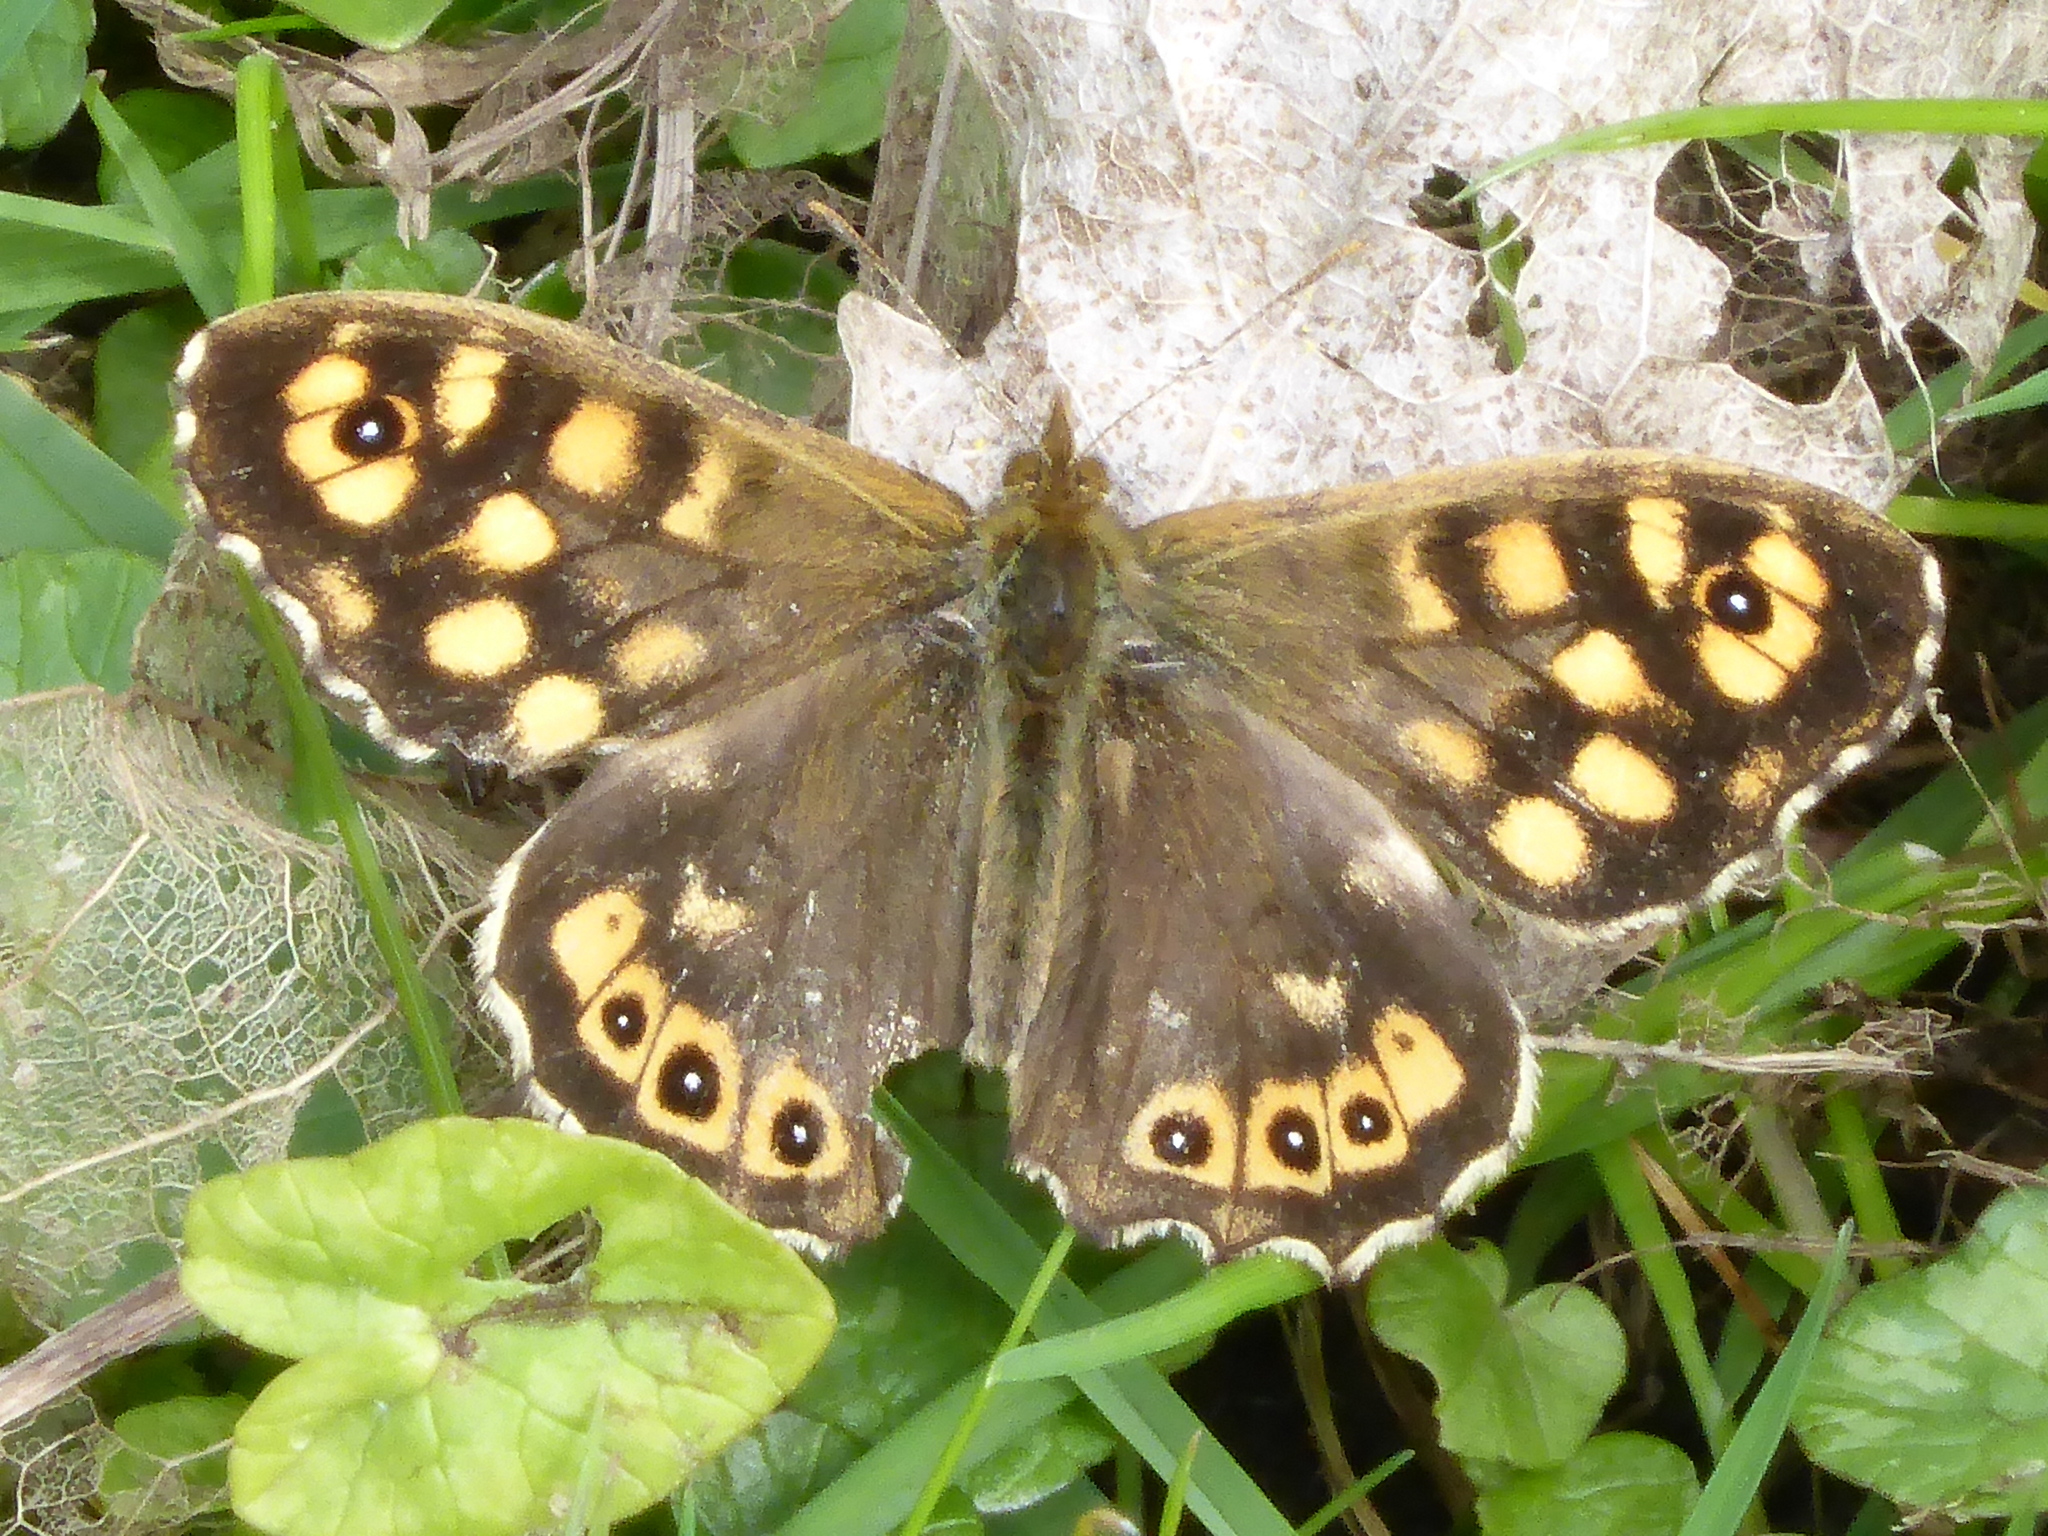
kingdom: Animalia
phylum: Arthropoda
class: Insecta
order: Lepidoptera
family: Nymphalidae
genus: Pararge
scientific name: Pararge aegeria
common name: Speckled wood
